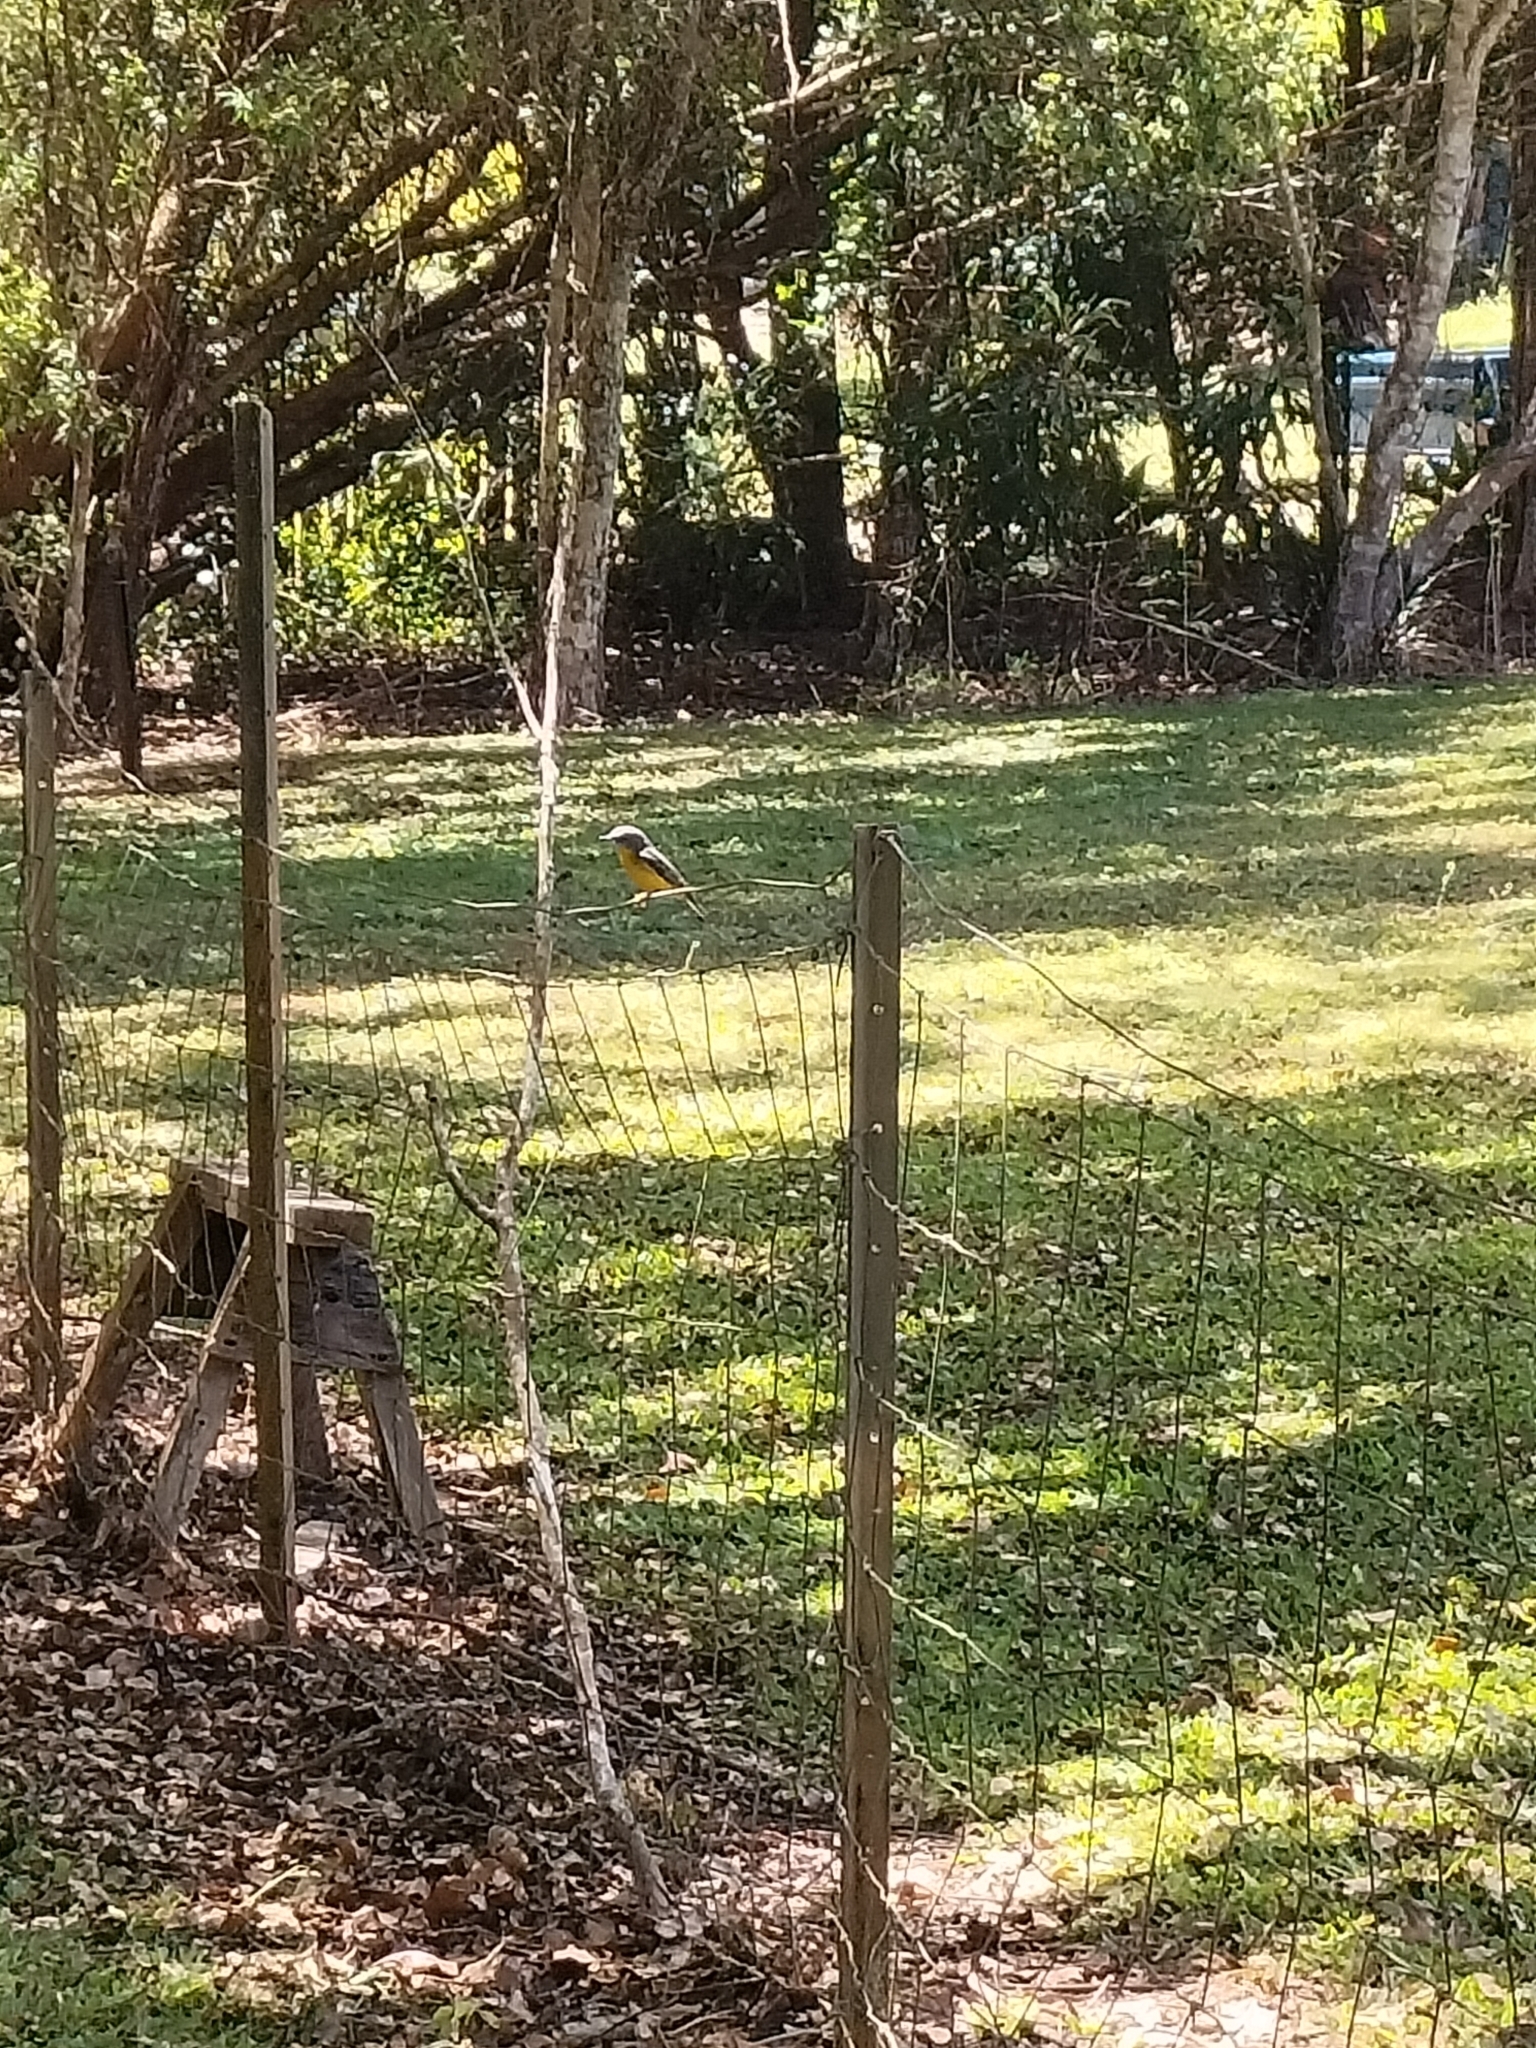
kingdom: Animalia
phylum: Chordata
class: Aves
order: Passeriformes
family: Petroicidae
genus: Eopsaltria
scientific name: Eopsaltria australis
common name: Eastern yellow robin
